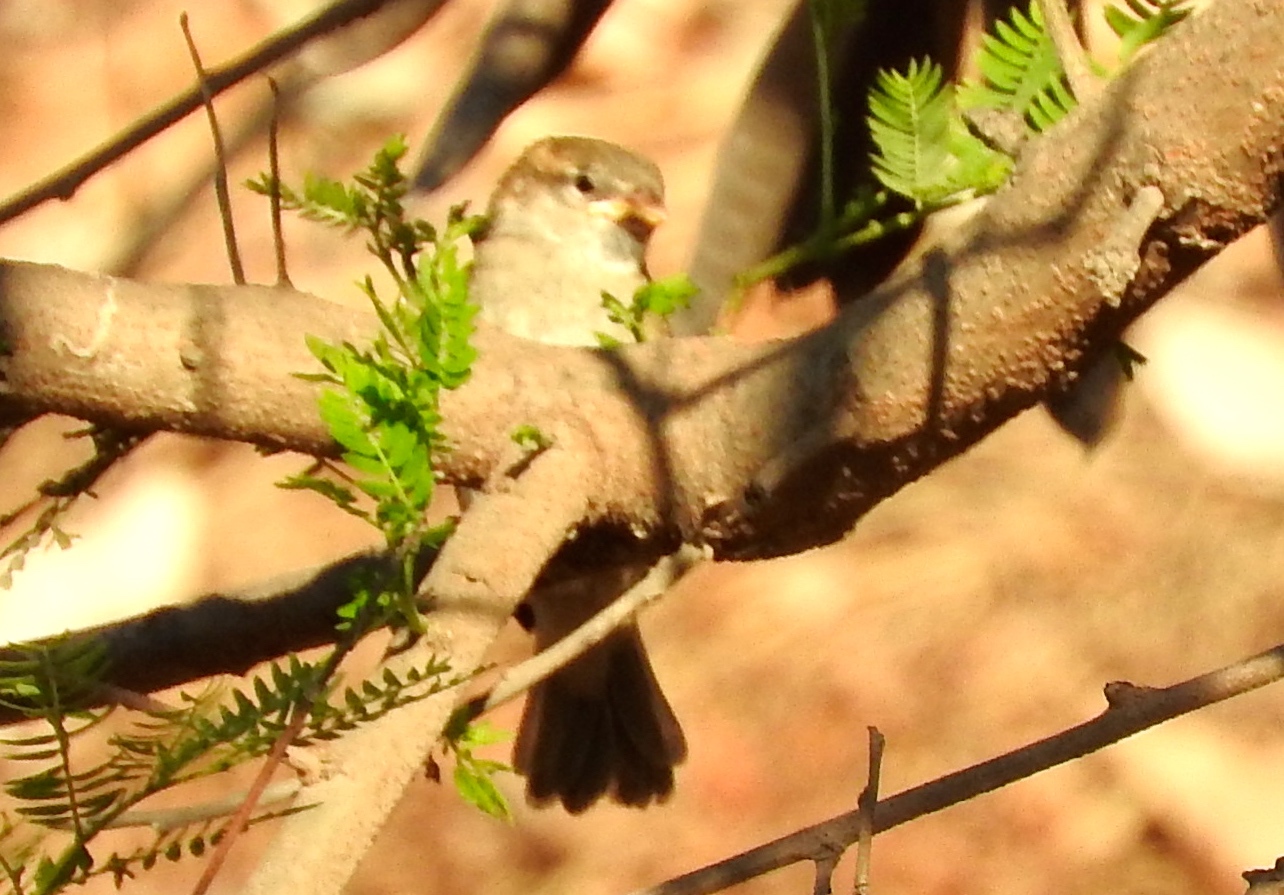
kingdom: Animalia
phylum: Chordata
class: Aves
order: Passeriformes
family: Passeridae
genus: Passer
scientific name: Passer domesticus
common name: House sparrow
